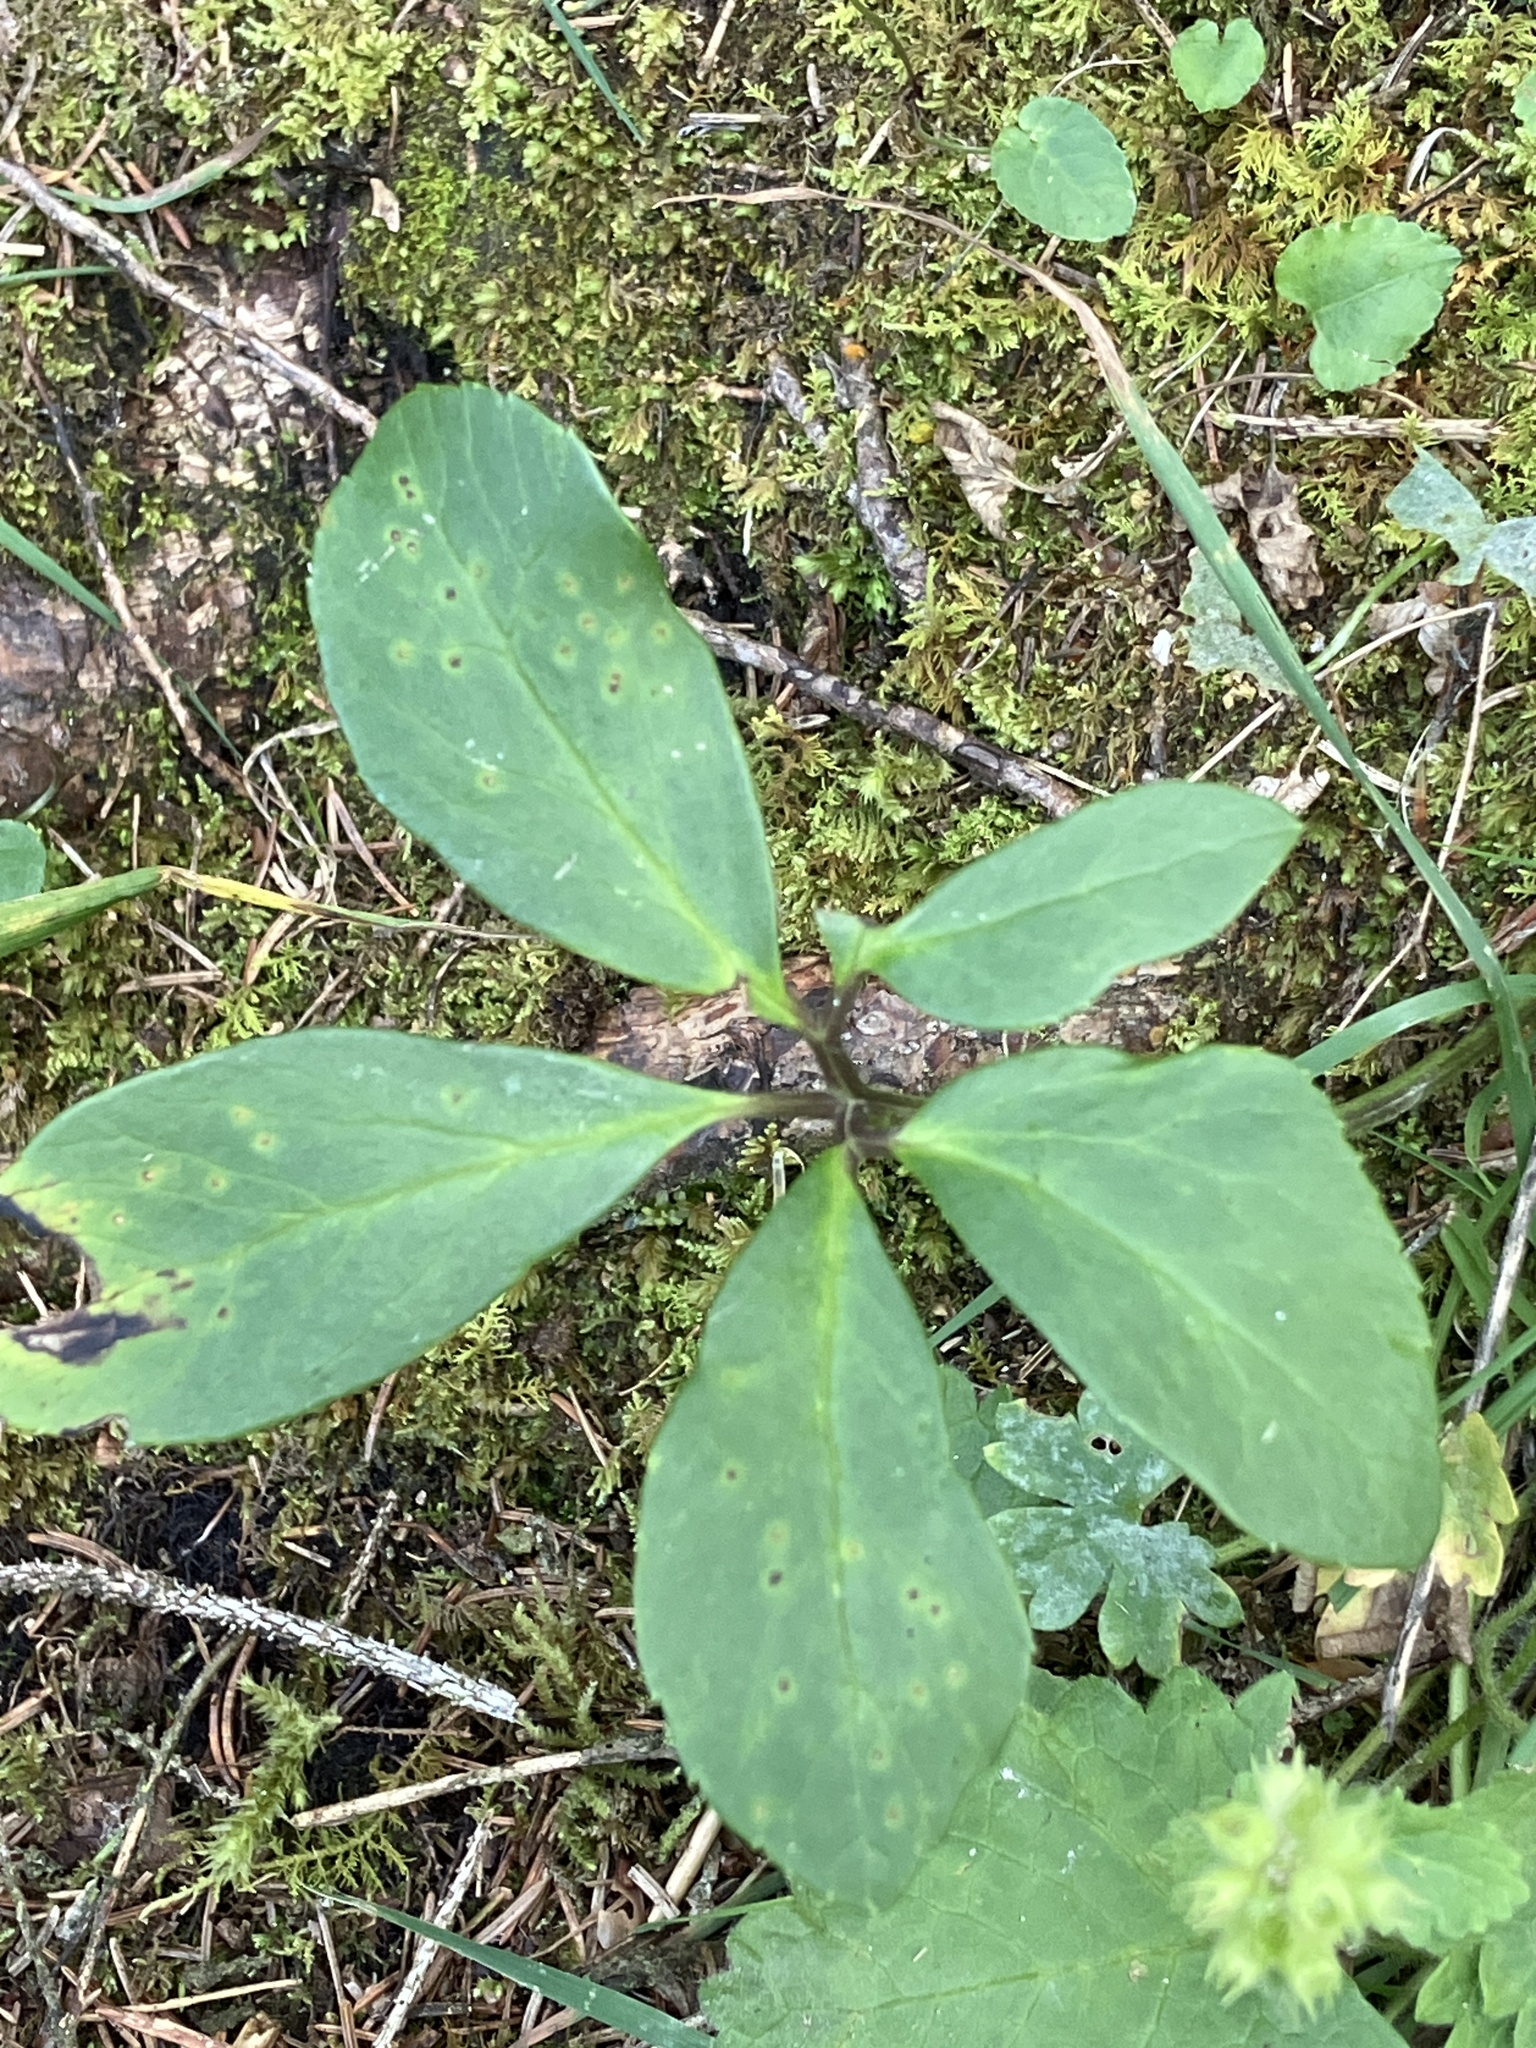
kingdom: Plantae
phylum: Tracheophyta
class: Magnoliopsida
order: Ranunculales
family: Ranunculaceae
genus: Helleborus
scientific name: Helleborus niger
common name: Black hellebore
